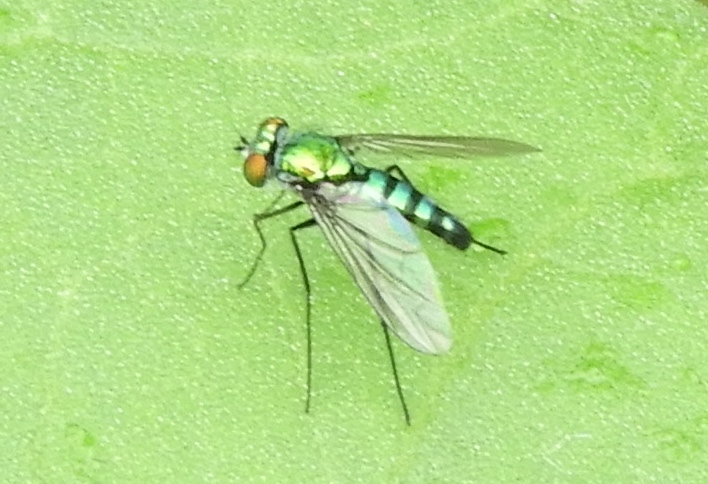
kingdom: Animalia
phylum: Arthropoda
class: Insecta
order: Diptera
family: Dolichopodidae
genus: Condylostylus
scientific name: Condylostylus longicornis
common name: Long-legged fly
